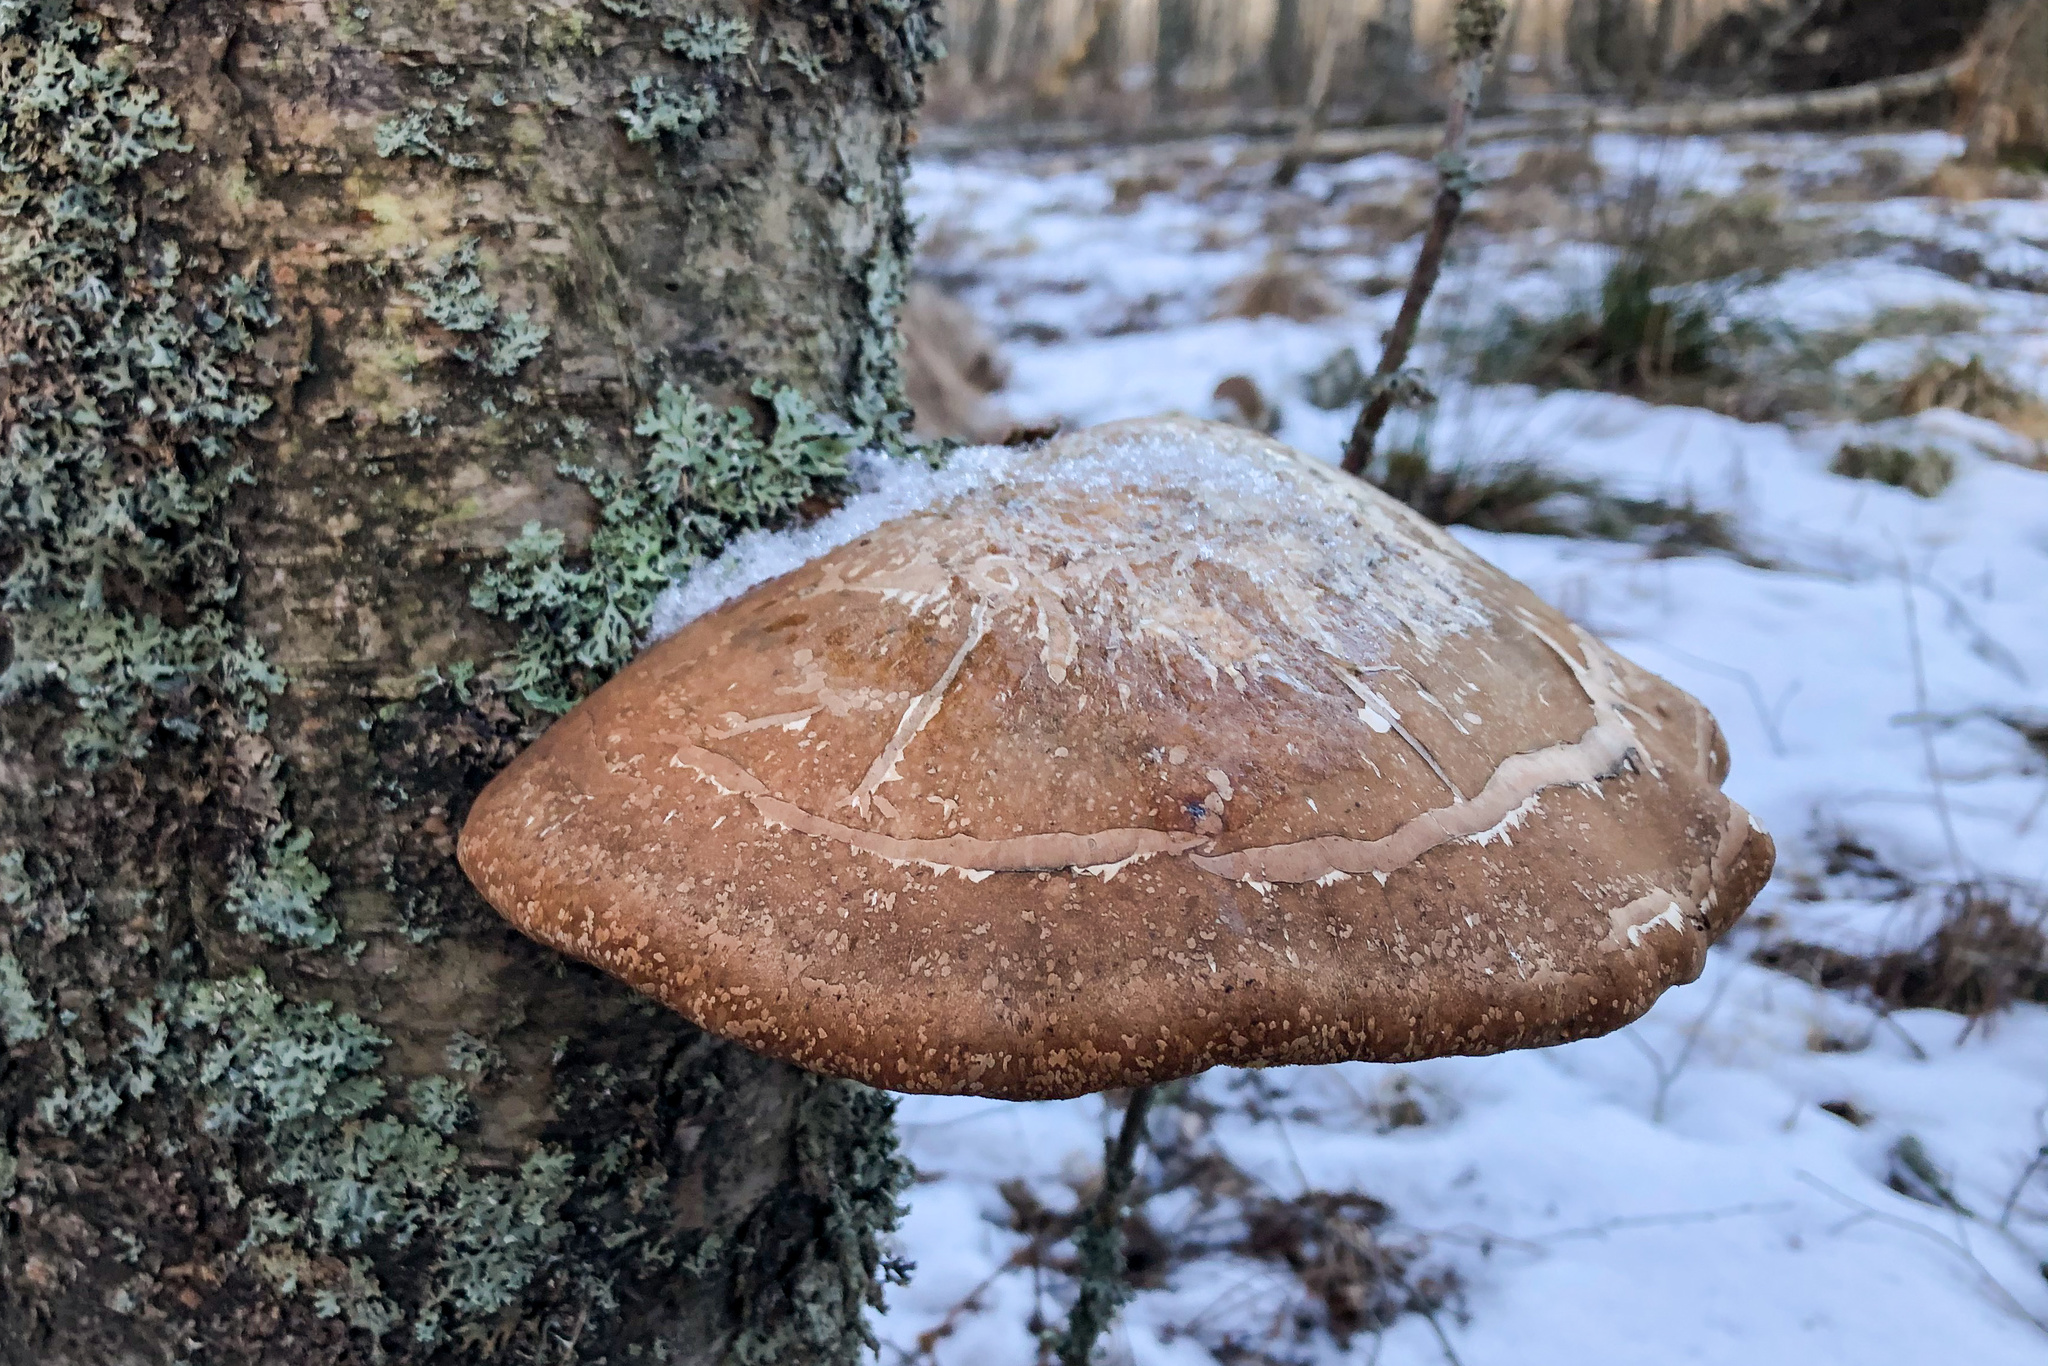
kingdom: Fungi
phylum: Basidiomycota
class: Agaricomycetes
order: Polyporales
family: Fomitopsidaceae
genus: Fomitopsis
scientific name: Fomitopsis betulina
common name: Birch polypore
